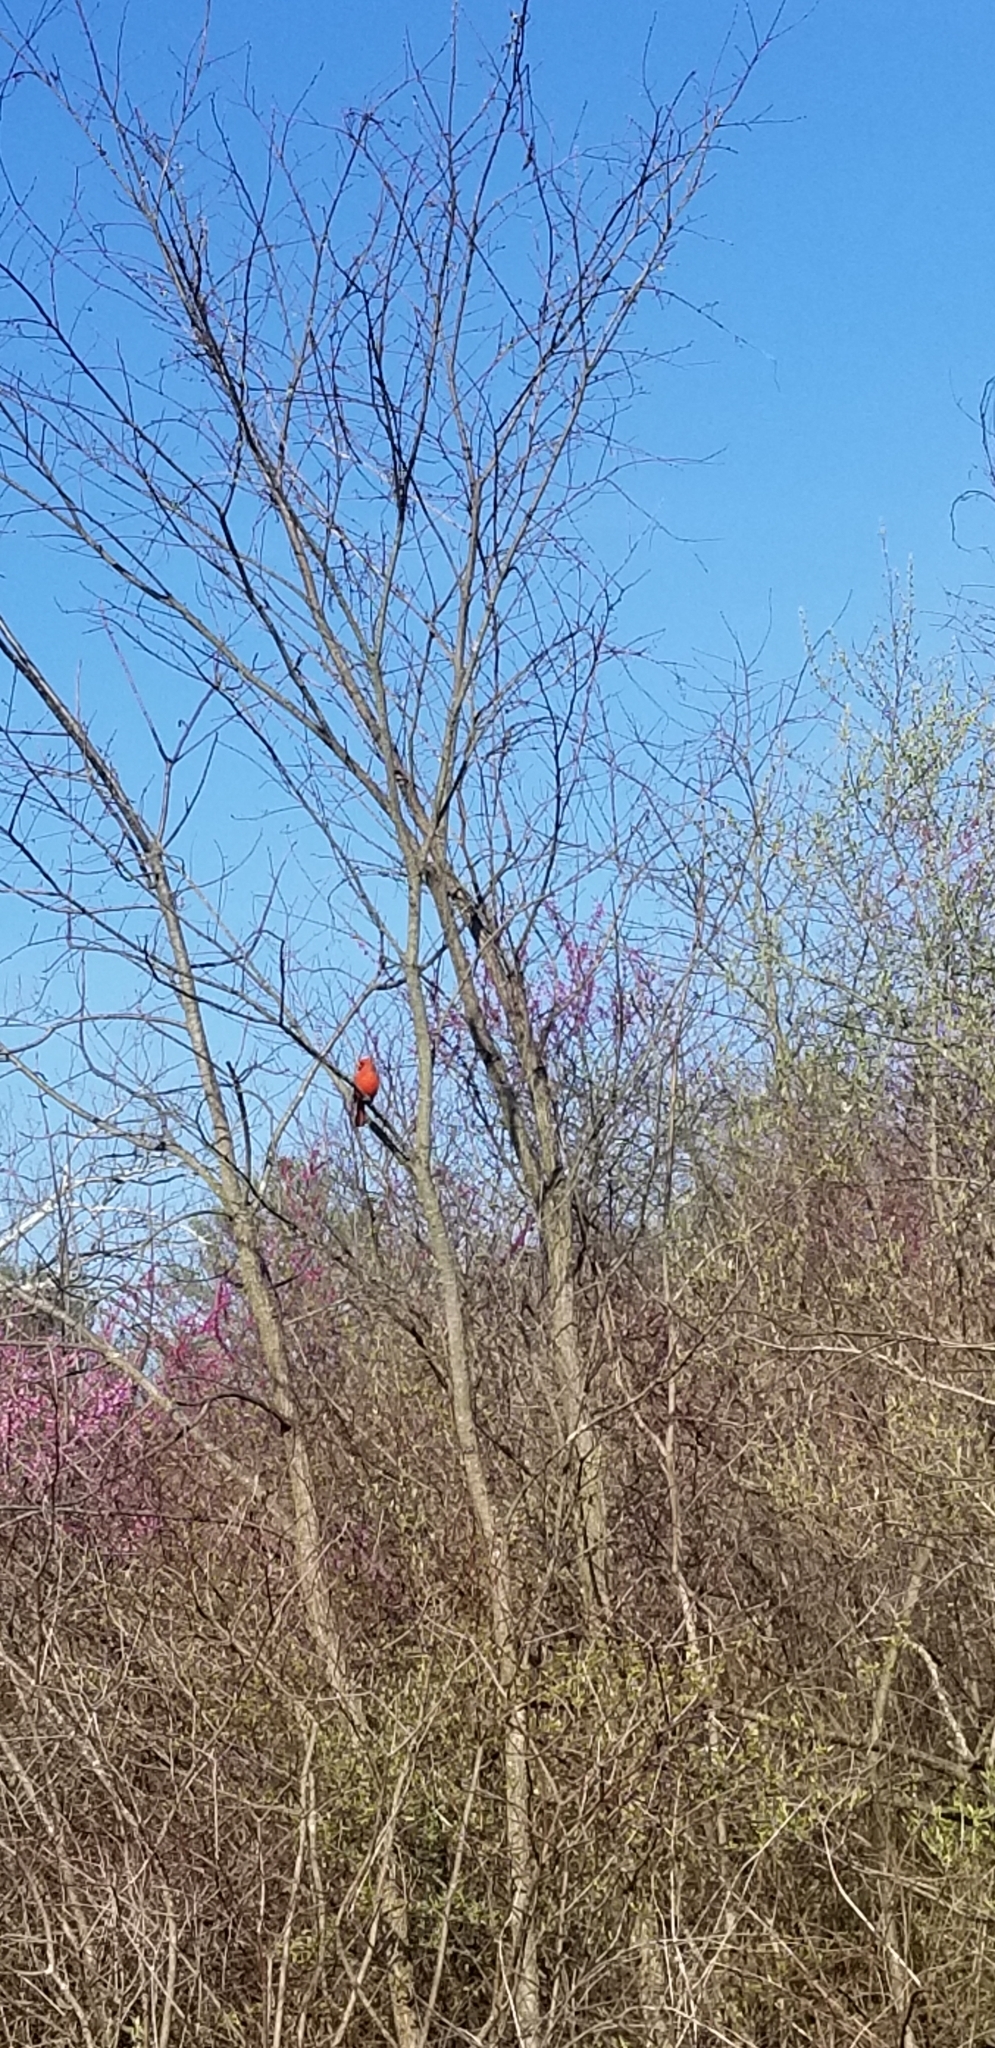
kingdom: Animalia
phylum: Chordata
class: Aves
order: Passeriformes
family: Cardinalidae
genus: Cardinalis
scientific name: Cardinalis cardinalis
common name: Northern cardinal
